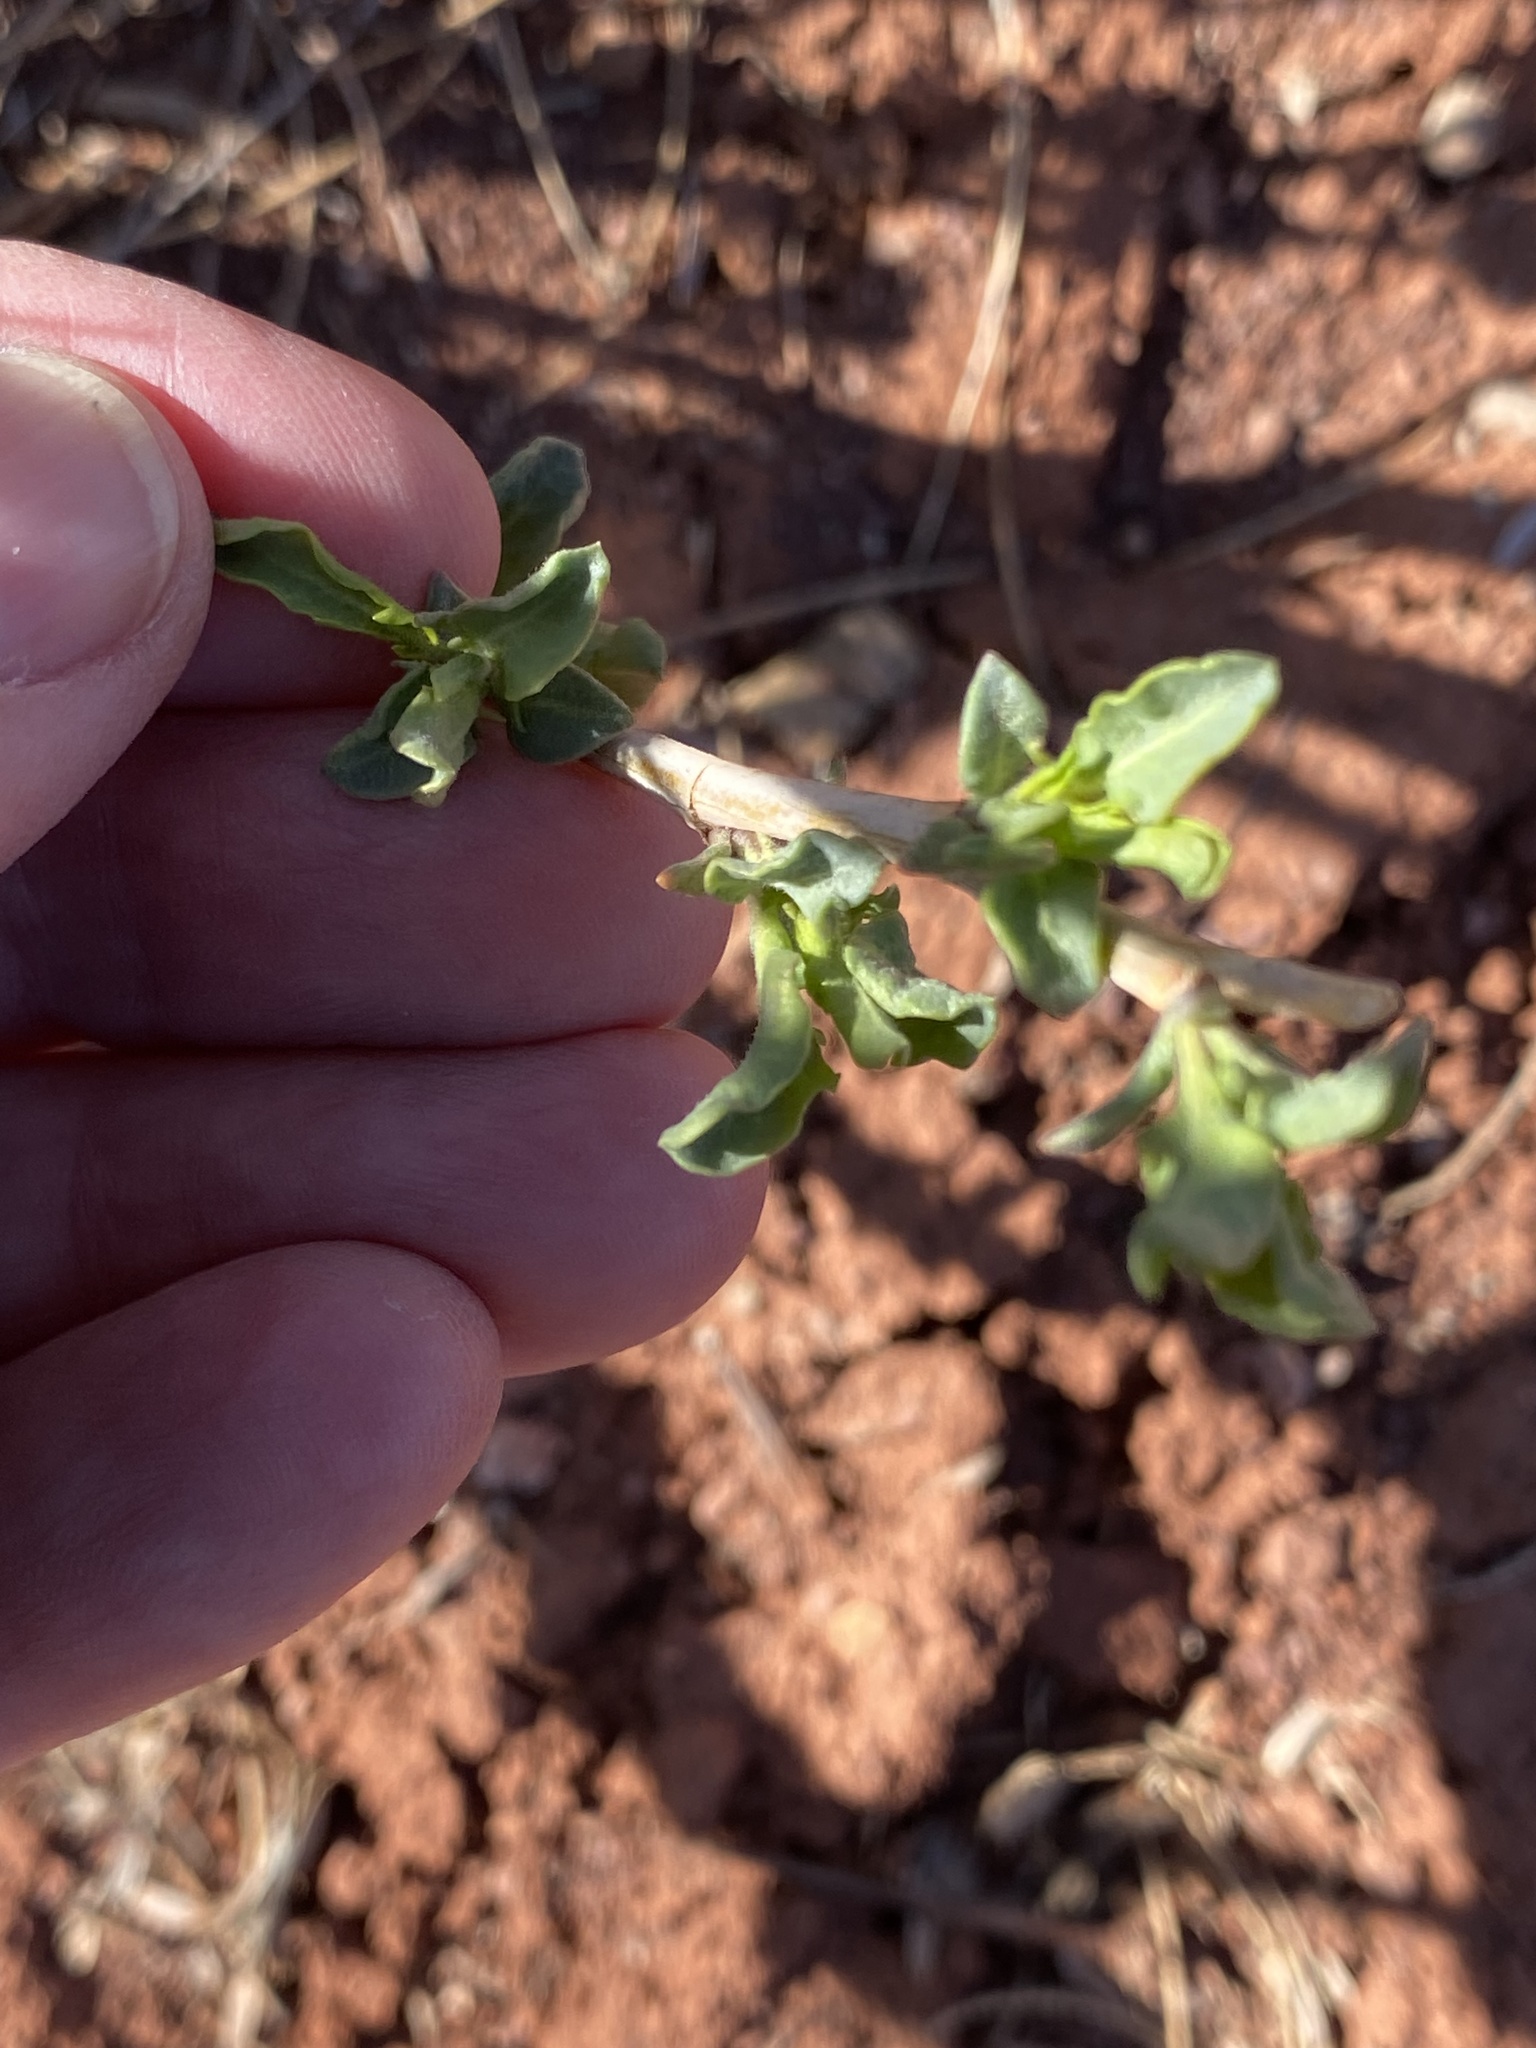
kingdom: Plantae
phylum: Tracheophyta
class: Magnoliopsida
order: Brassicales
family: Brassicaceae
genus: Stanleya
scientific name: Stanleya pinnata
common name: Prince's-plume
